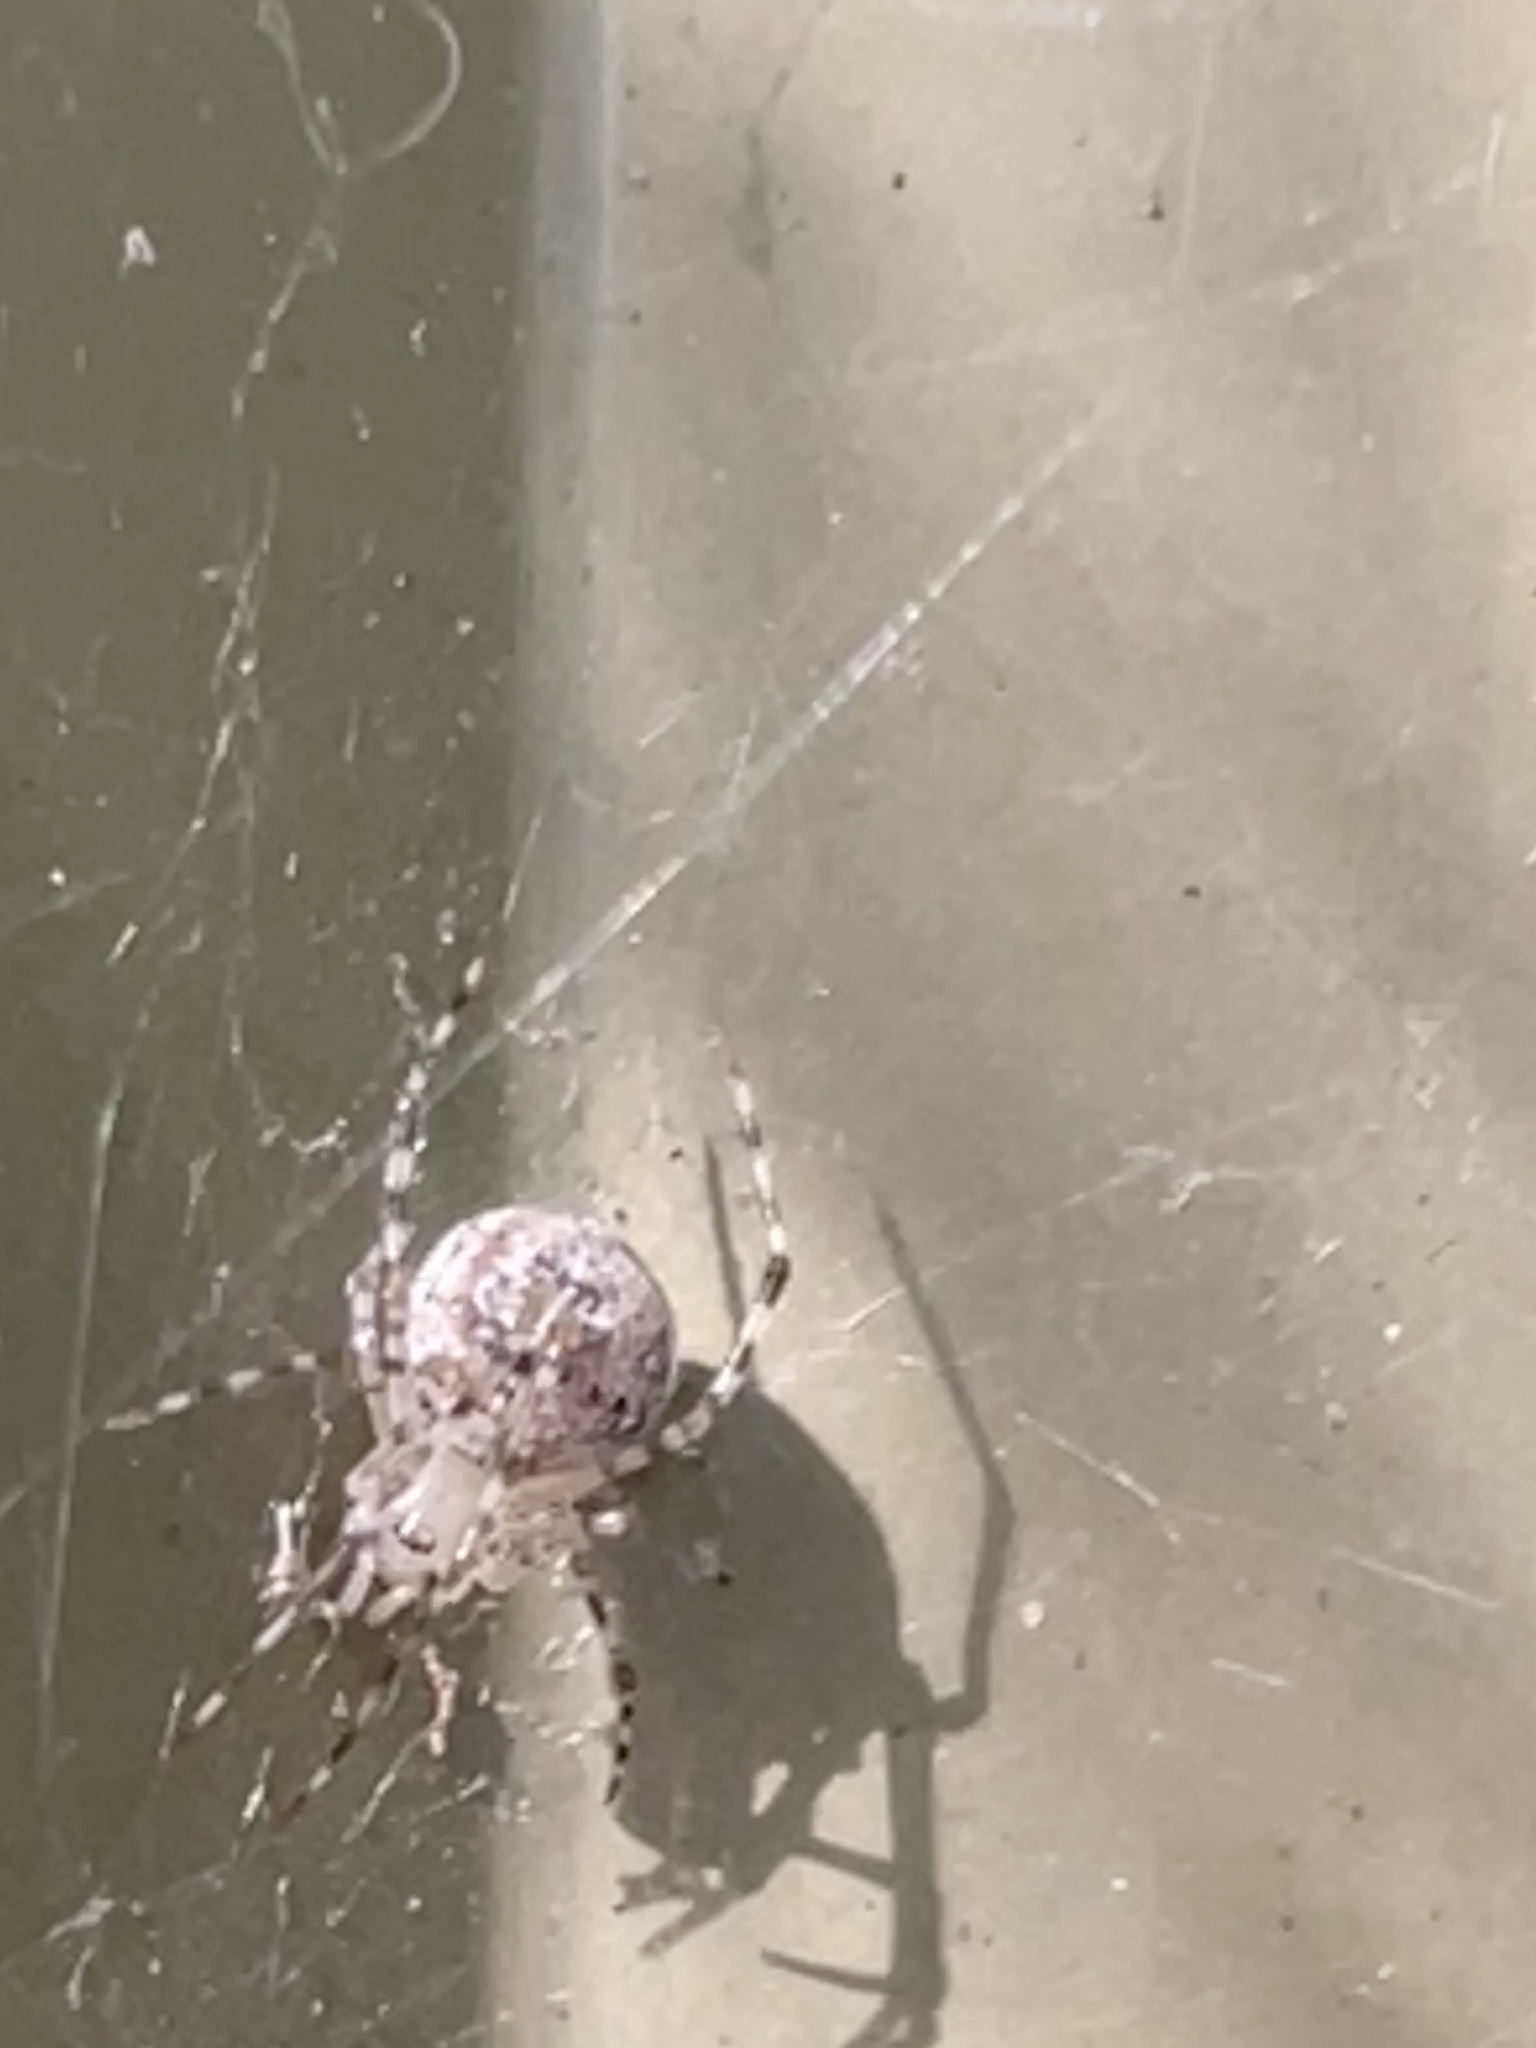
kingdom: Animalia
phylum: Arthropoda
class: Arachnida
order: Araneae
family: Theridiidae
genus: Cryptachaea
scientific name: Cryptachaea gigantipes
